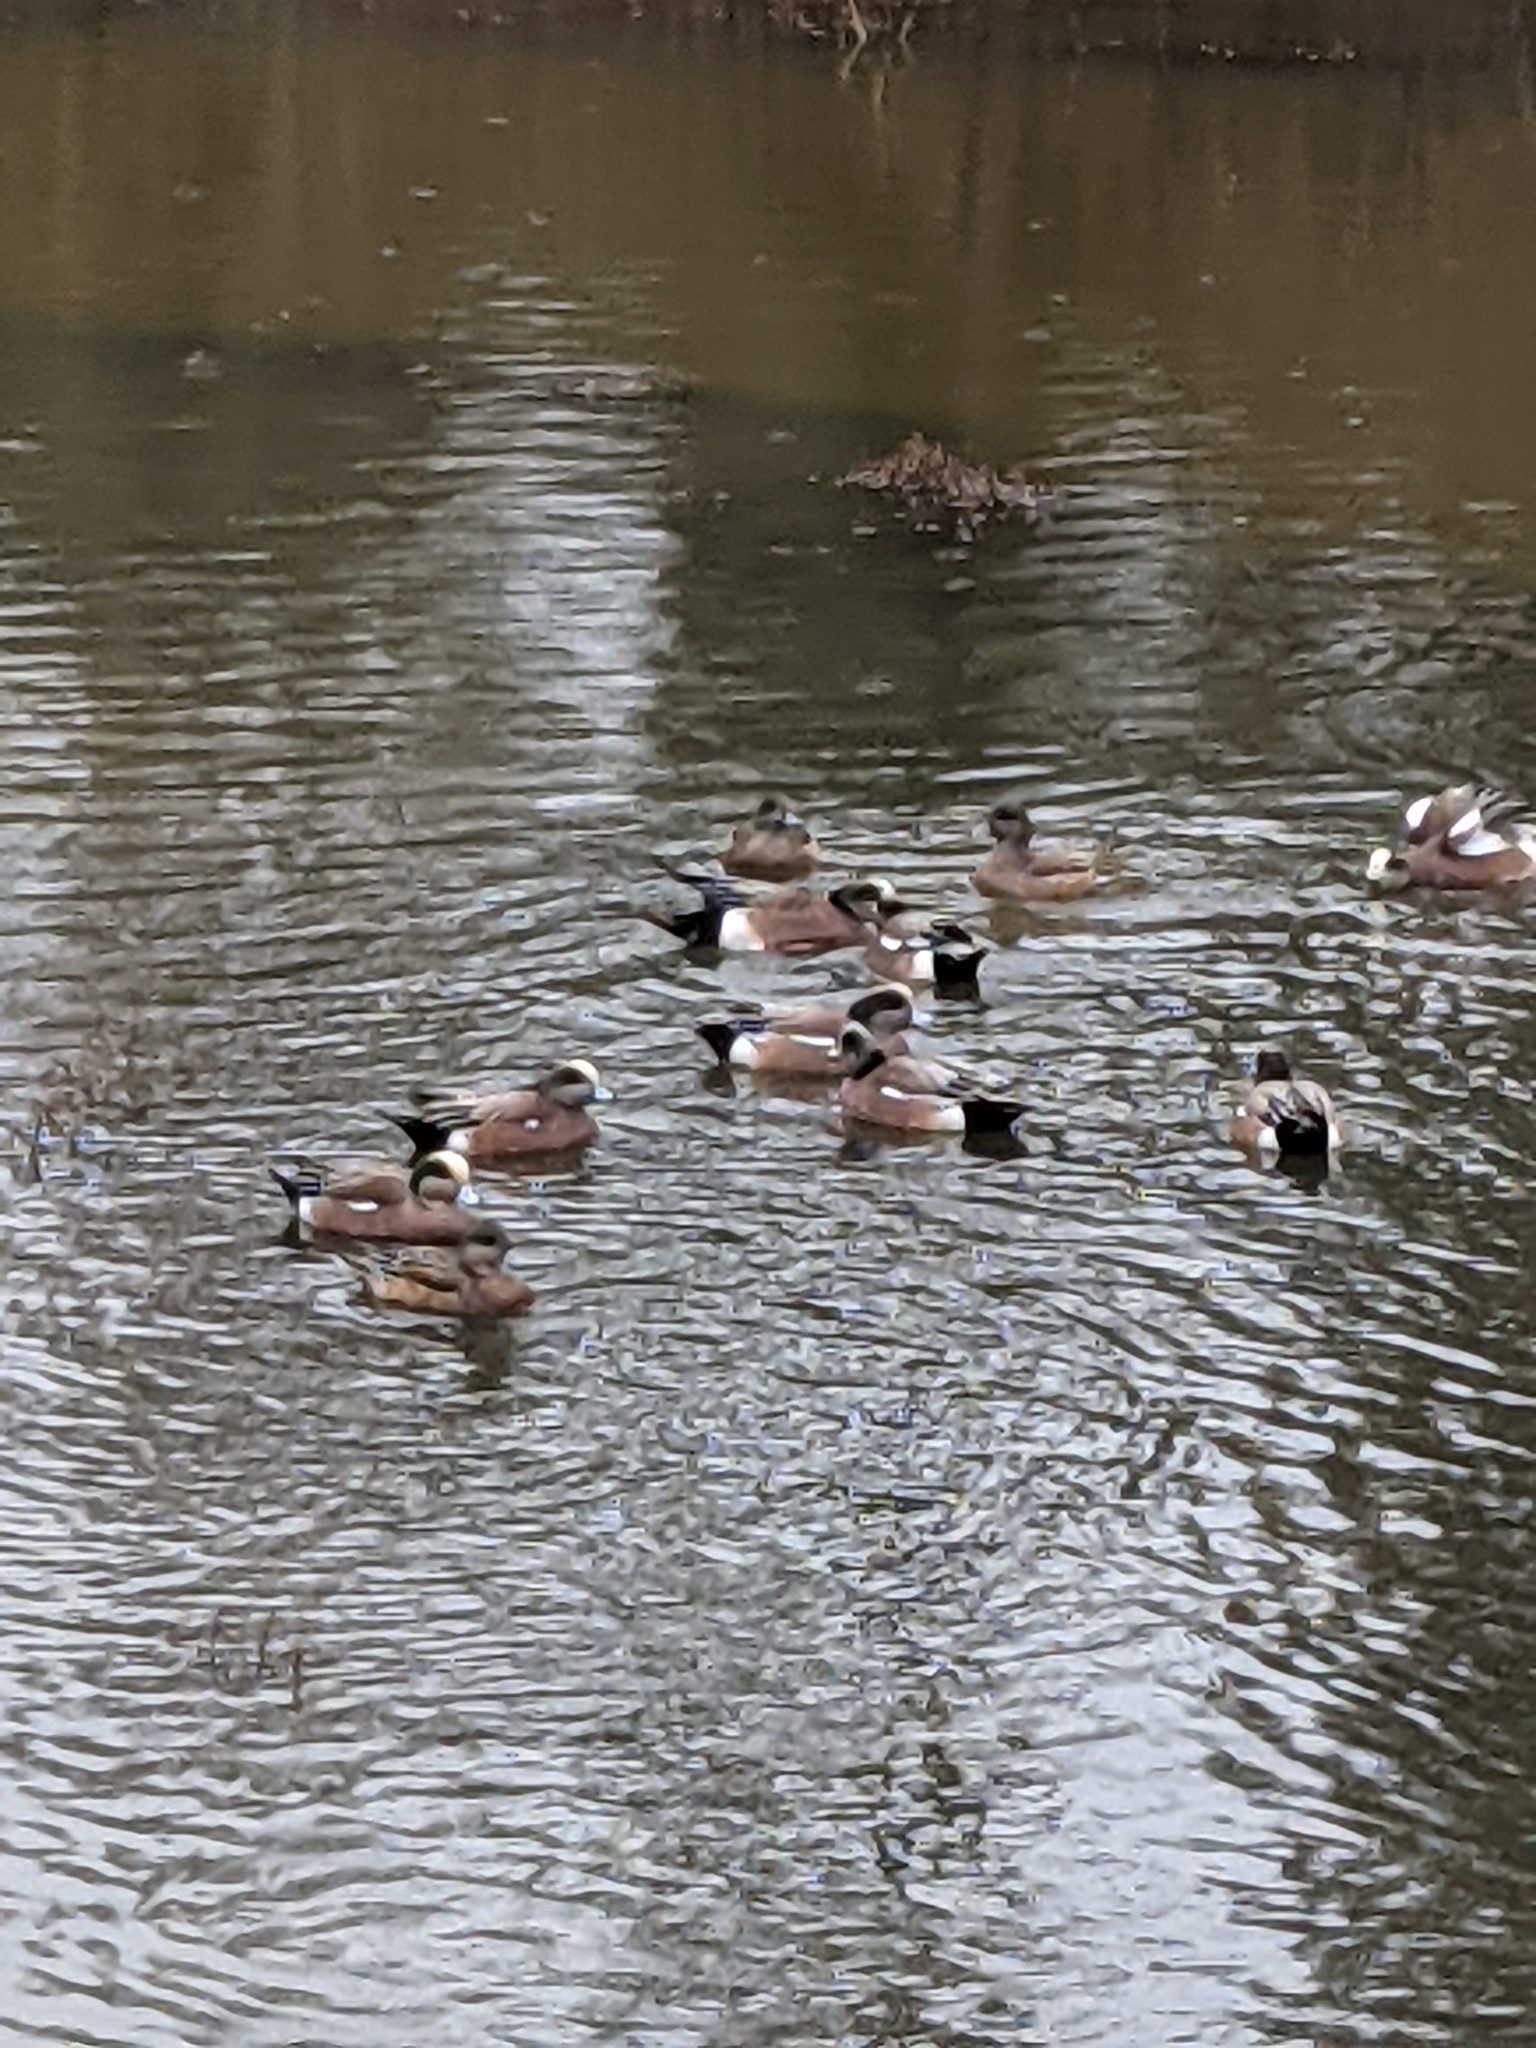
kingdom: Animalia
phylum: Chordata
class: Aves
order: Anseriformes
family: Anatidae
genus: Mareca
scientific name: Mareca americana
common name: American wigeon
